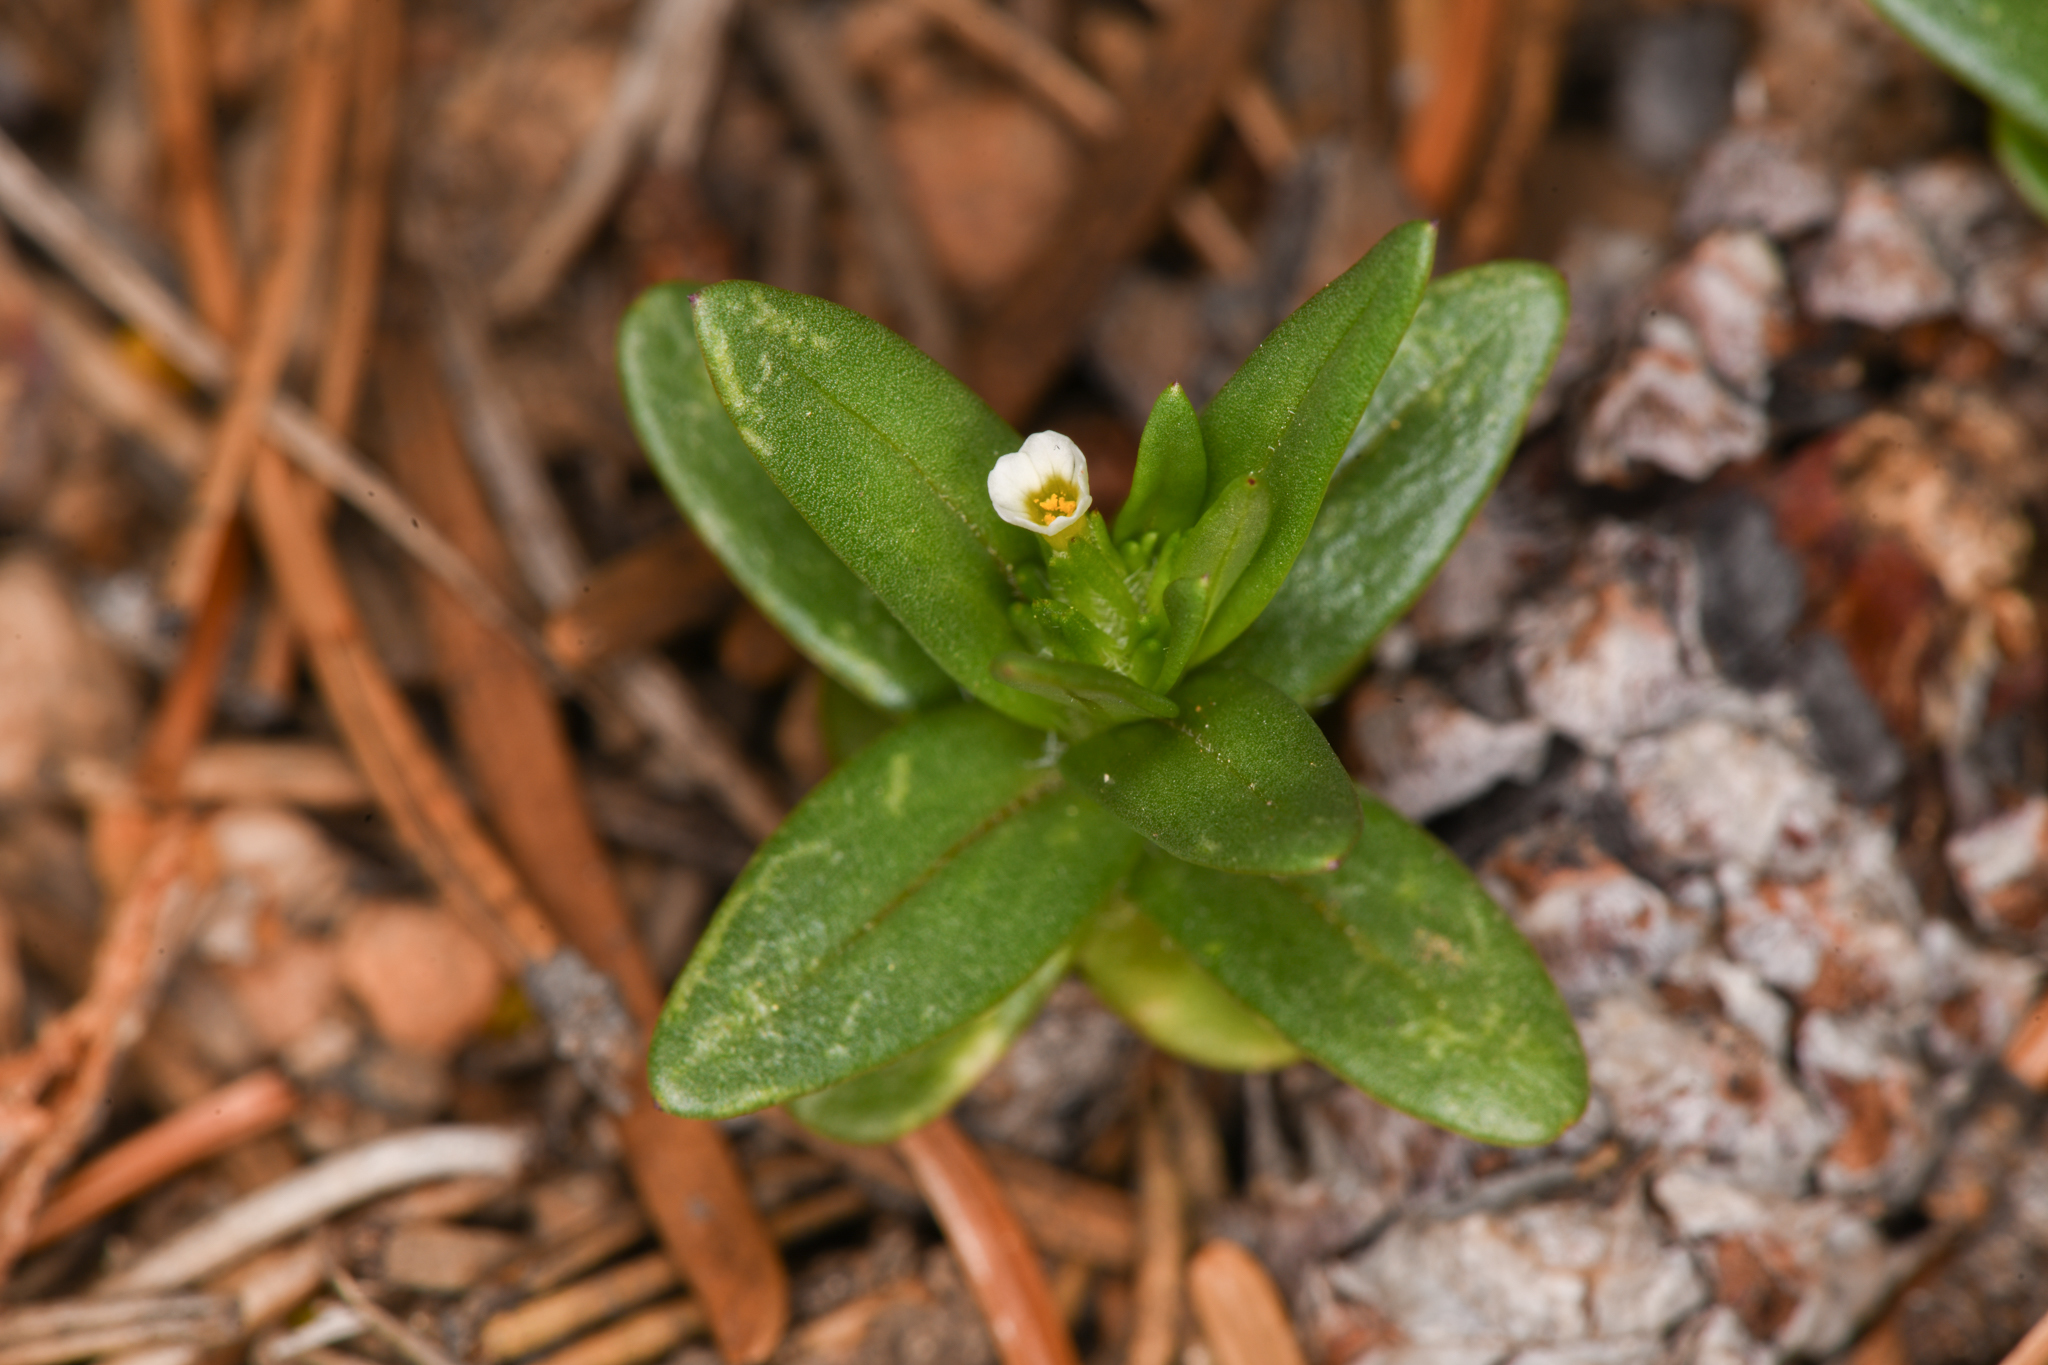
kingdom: Plantae
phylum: Tracheophyta
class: Magnoliopsida
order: Ericales
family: Polemoniaceae
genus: Phlox
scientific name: Phlox gracilis
